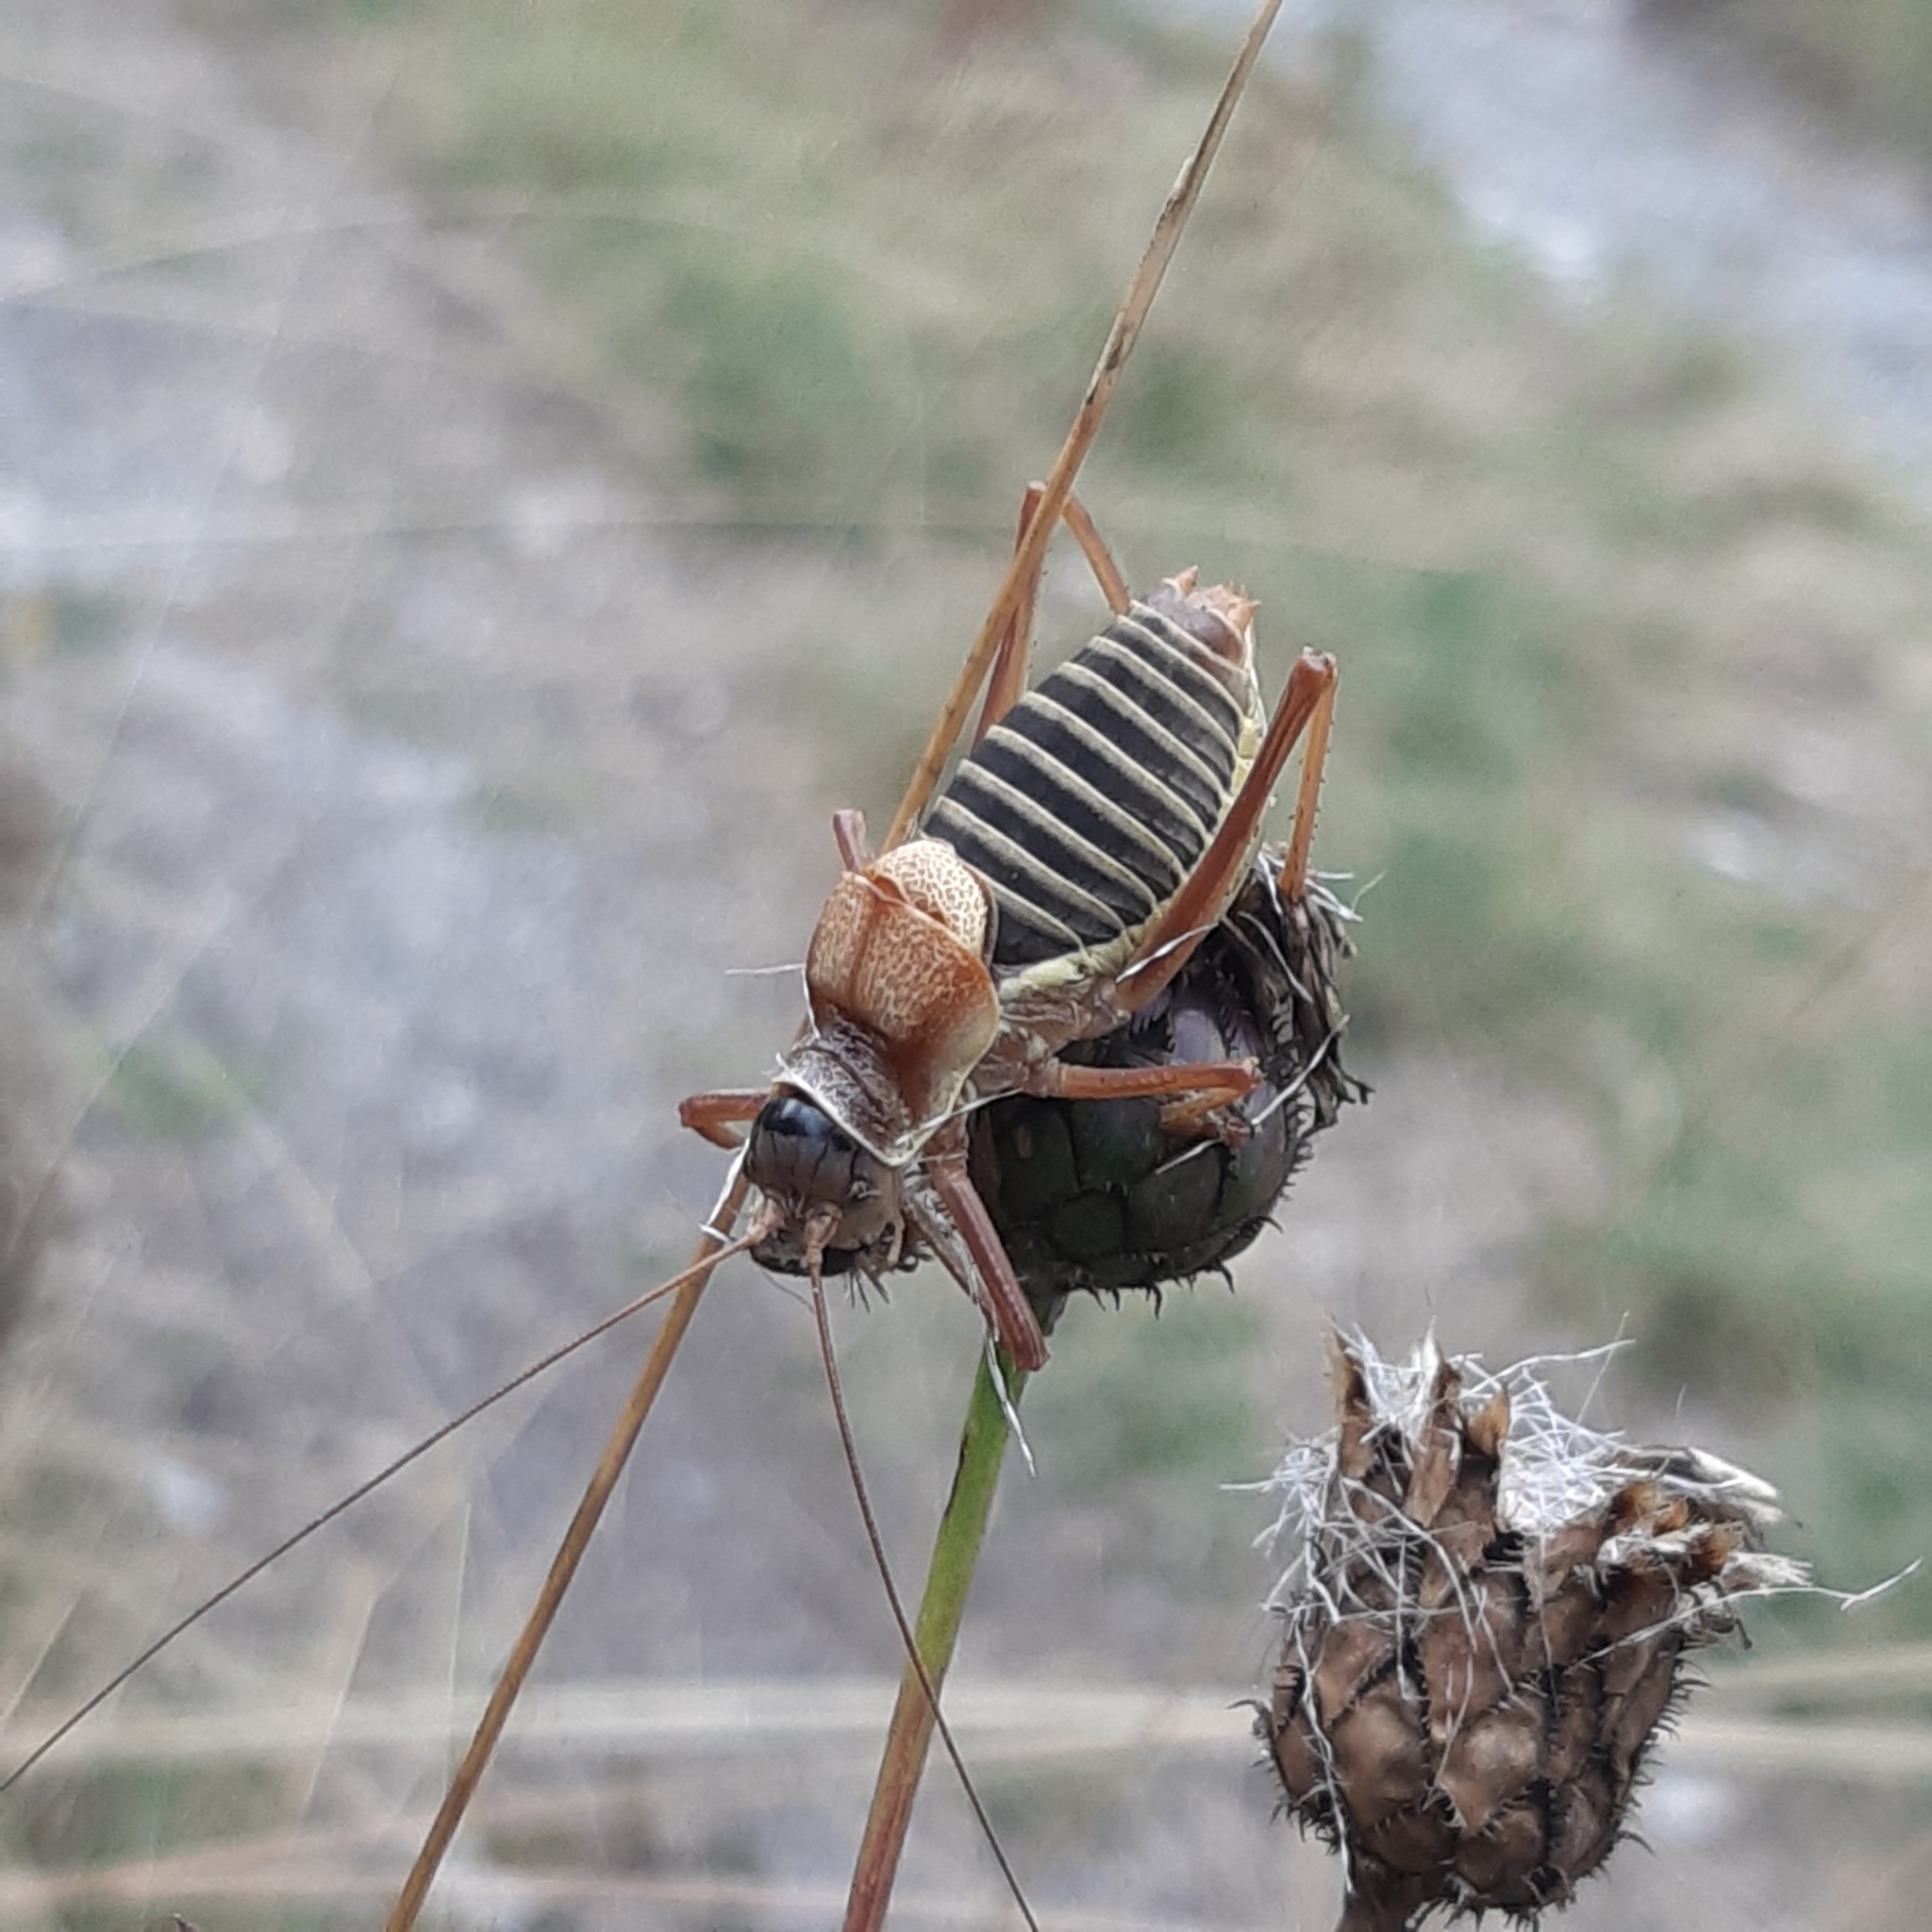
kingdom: Animalia
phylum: Arthropoda
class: Insecta
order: Orthoptera
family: Tettigoniidae
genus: Ephippiger
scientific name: Ephippiger diurnus
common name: Western saddle bush-cricket
